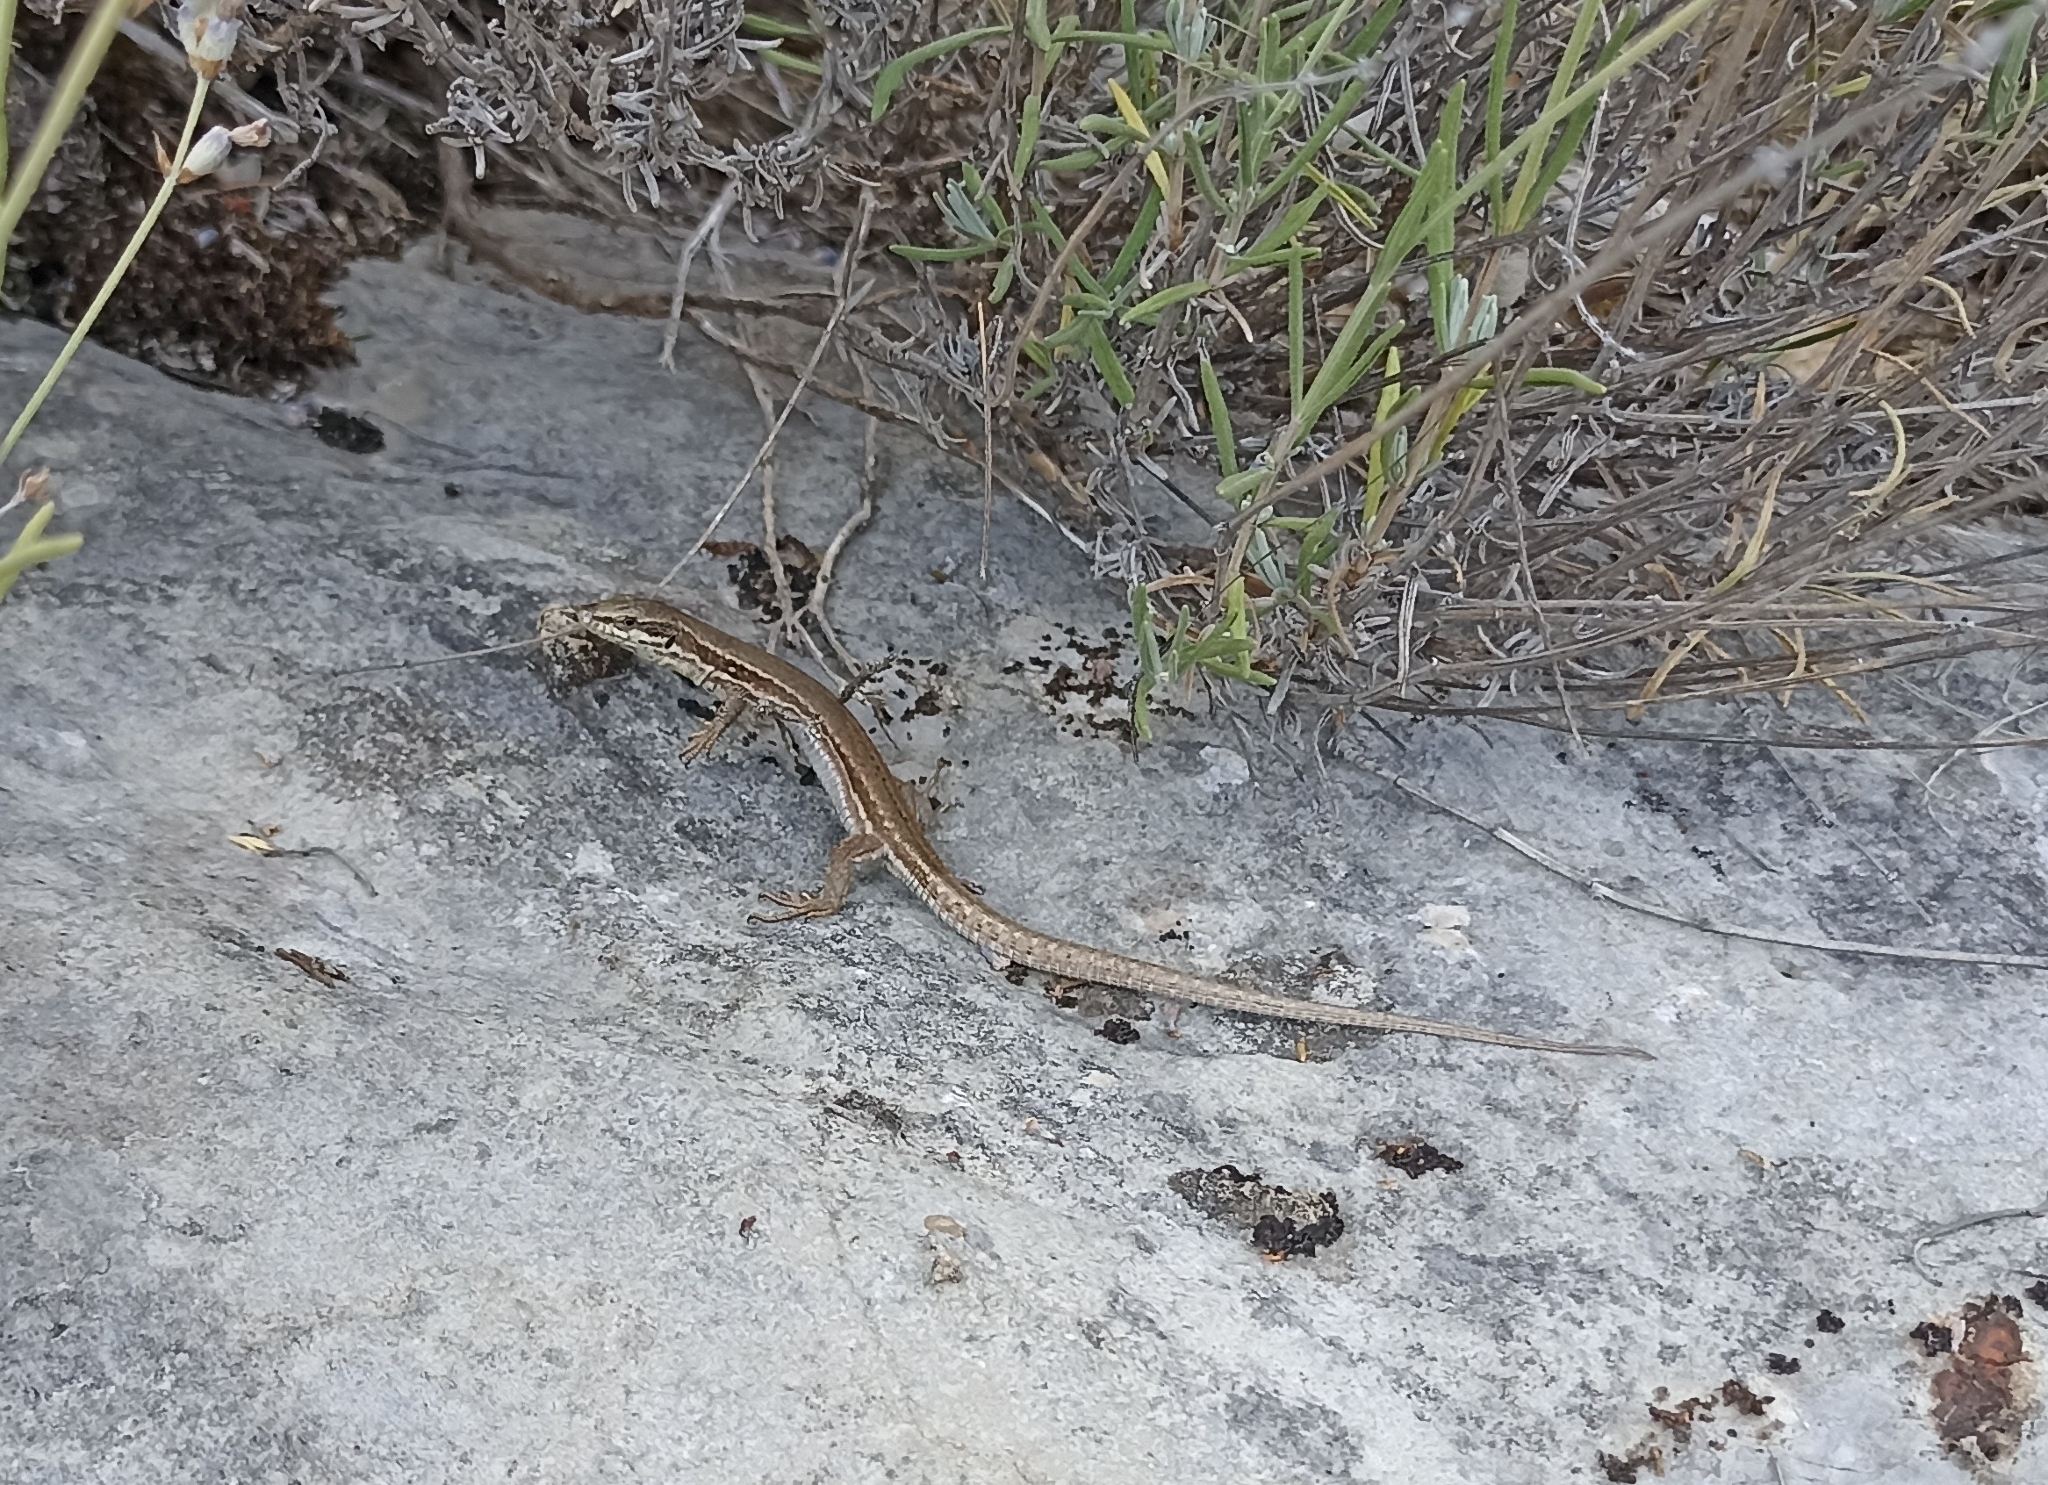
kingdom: Animalia
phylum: Chordata
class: Squamata
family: Lacertidae
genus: Podarcis
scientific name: Podarcis muralis
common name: Common wall lizard
